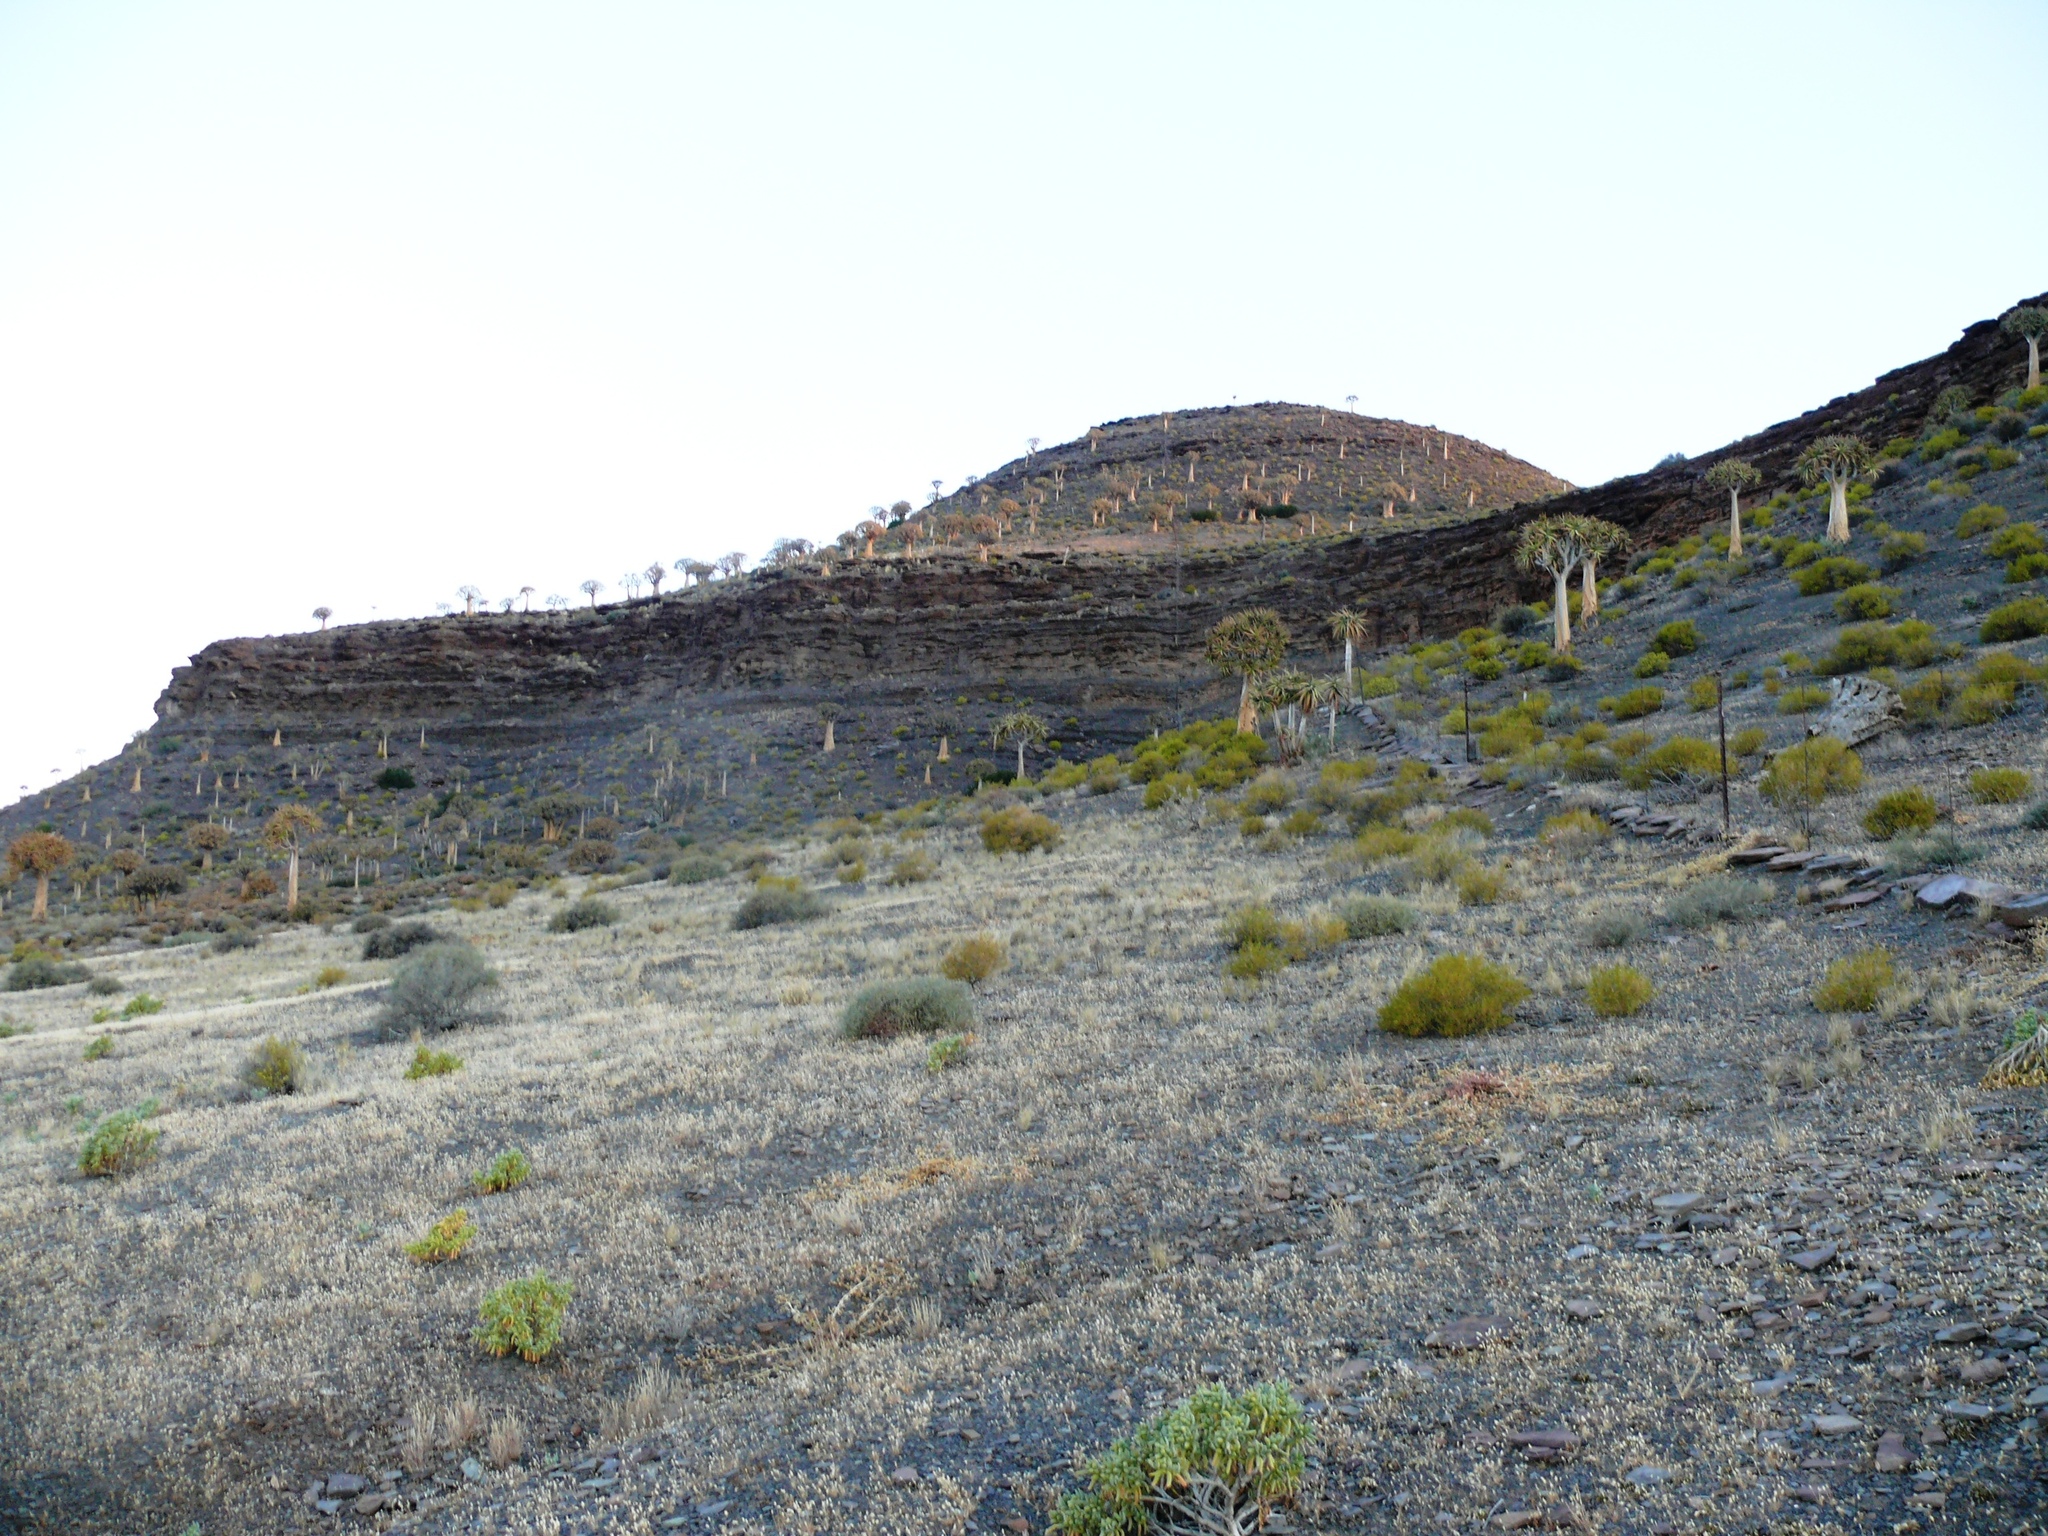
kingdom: Plantae
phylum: Tracheophyta
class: Liliopsida
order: Asparagales
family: Asphodelaceae
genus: Aloidendron
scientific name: Aloidendron dichotomum
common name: Quiver tree
